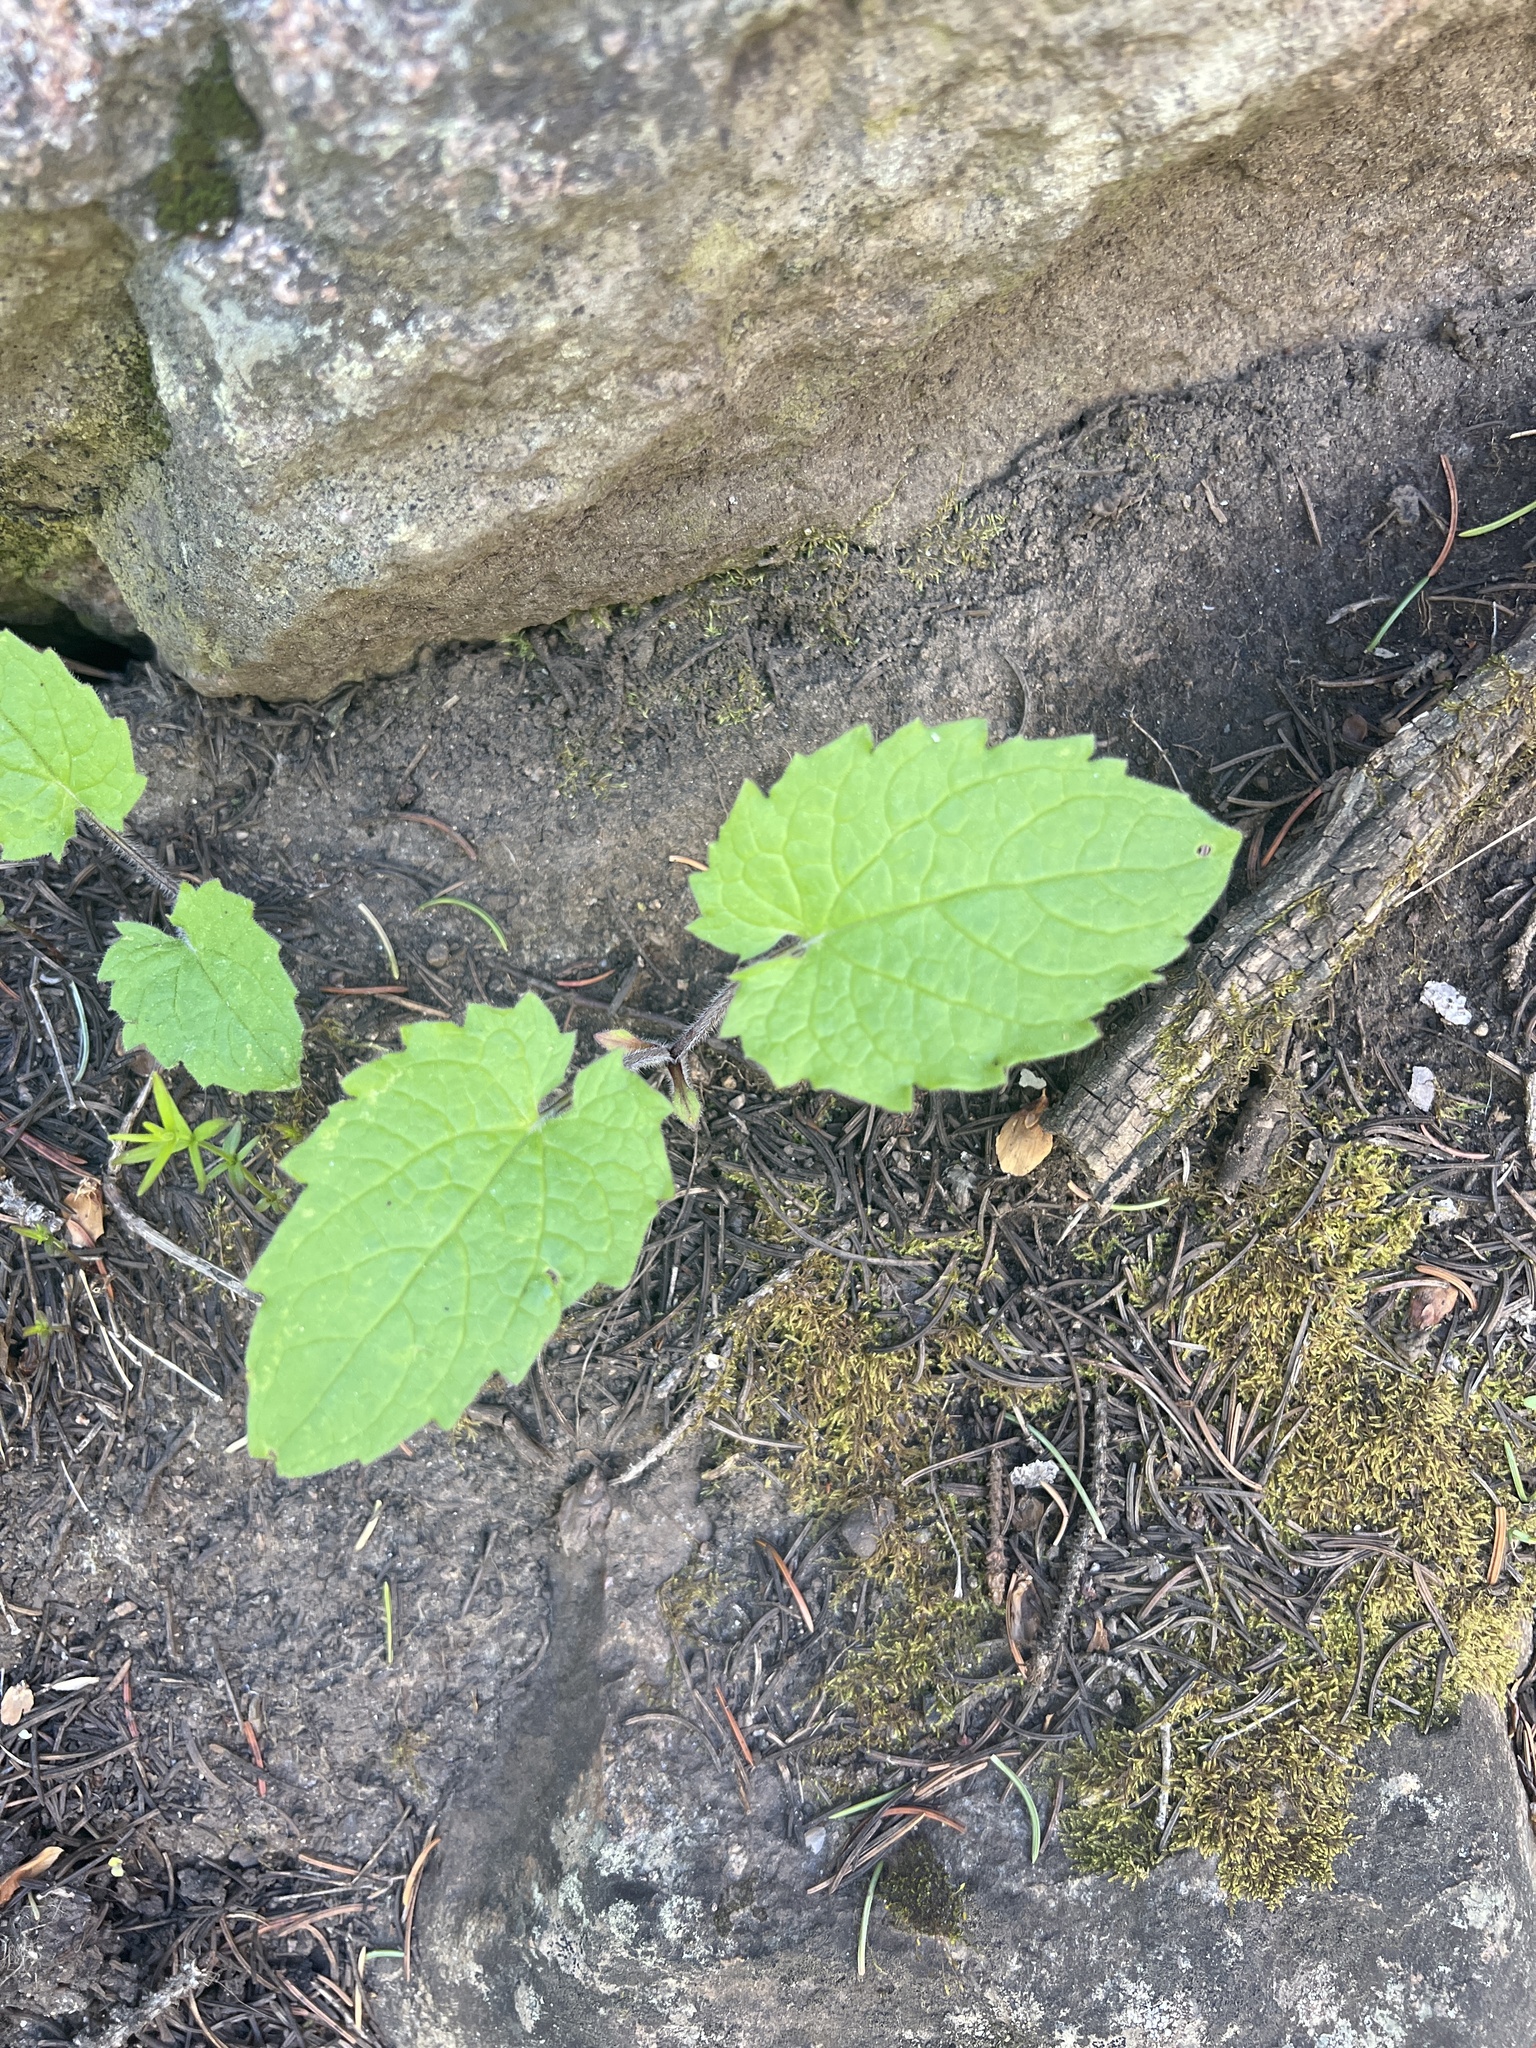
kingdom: Plantae
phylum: Tracheophyta
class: Magnoliopsida
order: Asterales
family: Asteraceae
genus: Arnica
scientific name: Arnica cordifolia
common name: Heart-leaf arnica
